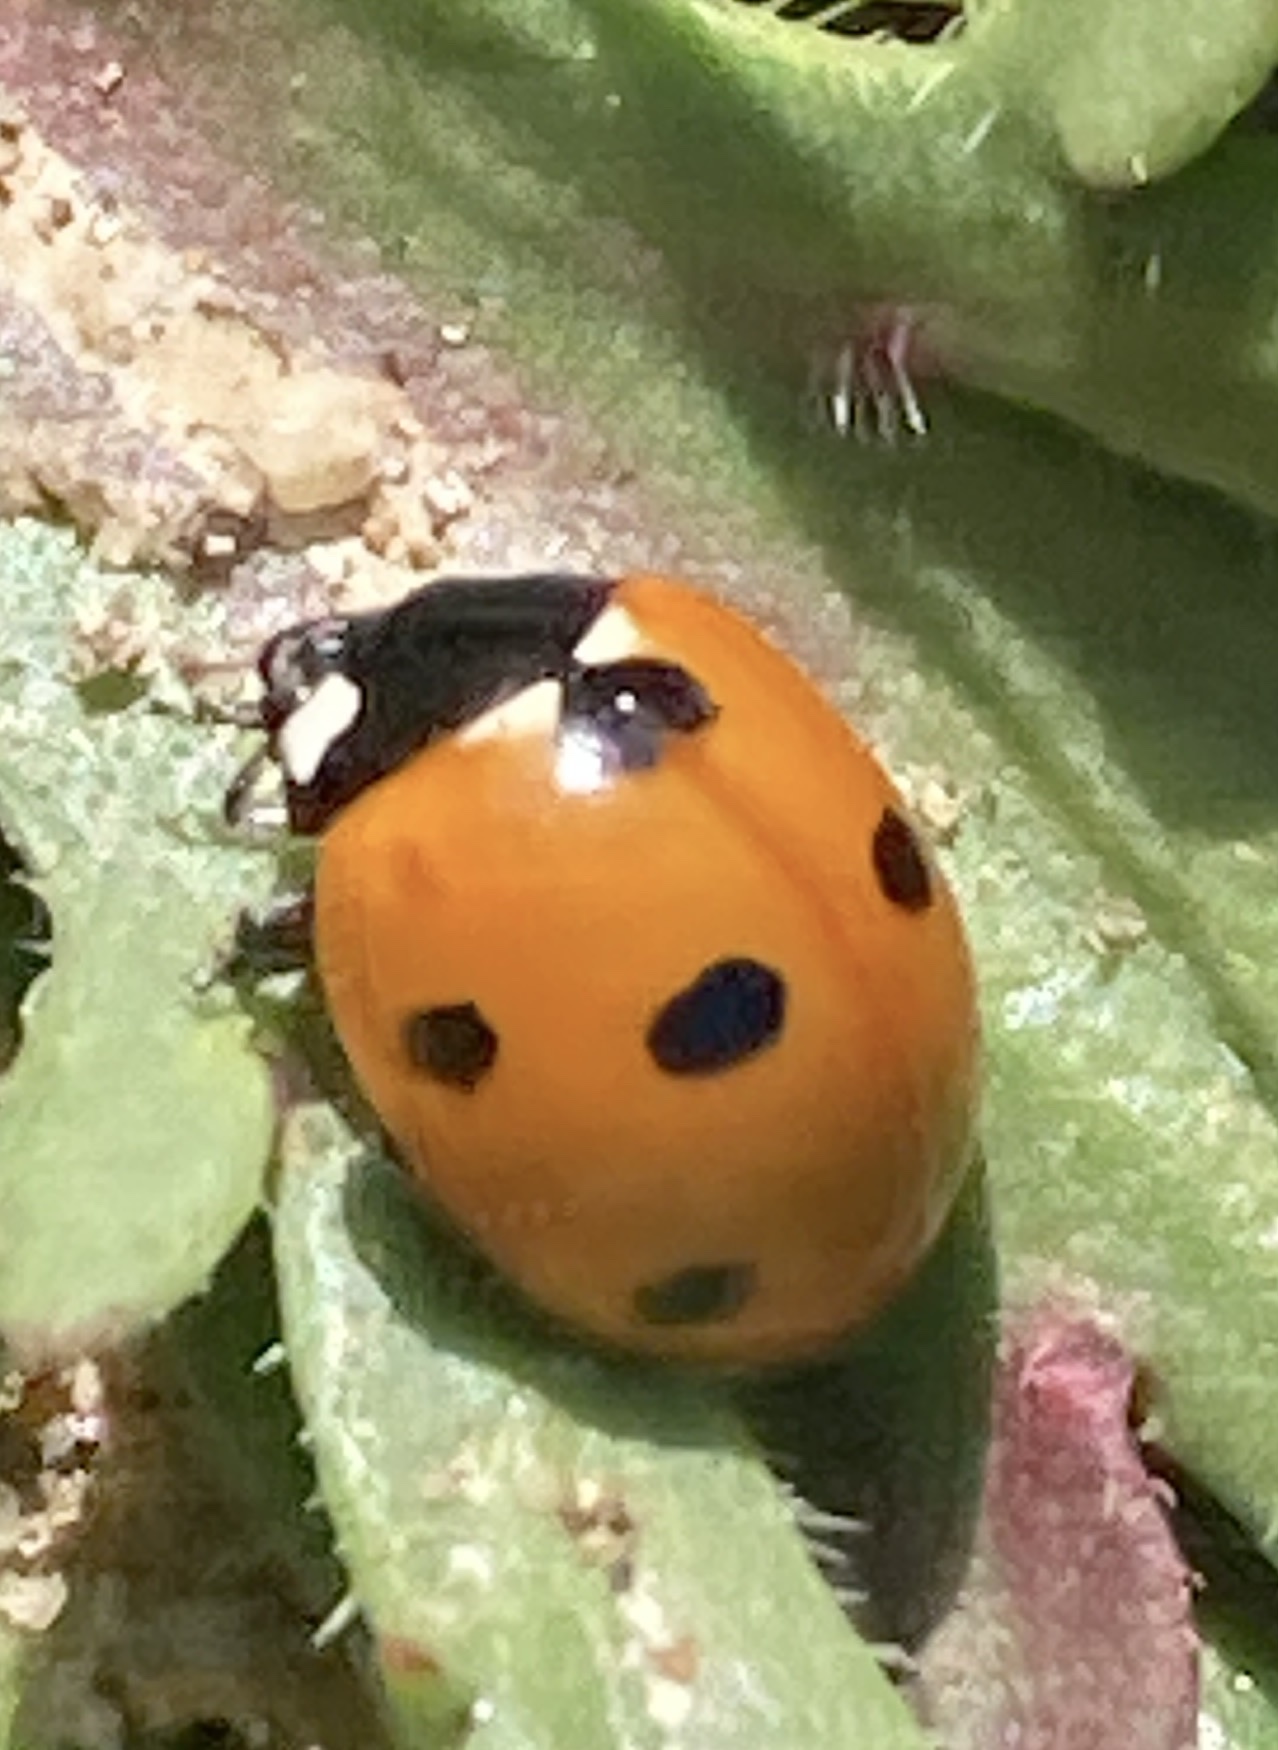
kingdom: Animalia
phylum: Arthropoda
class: Insecta
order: Coleoptera
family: Coccinellidae
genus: Coccinella
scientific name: Coccinella septempunctata
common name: Sevenspotted lady beetle
